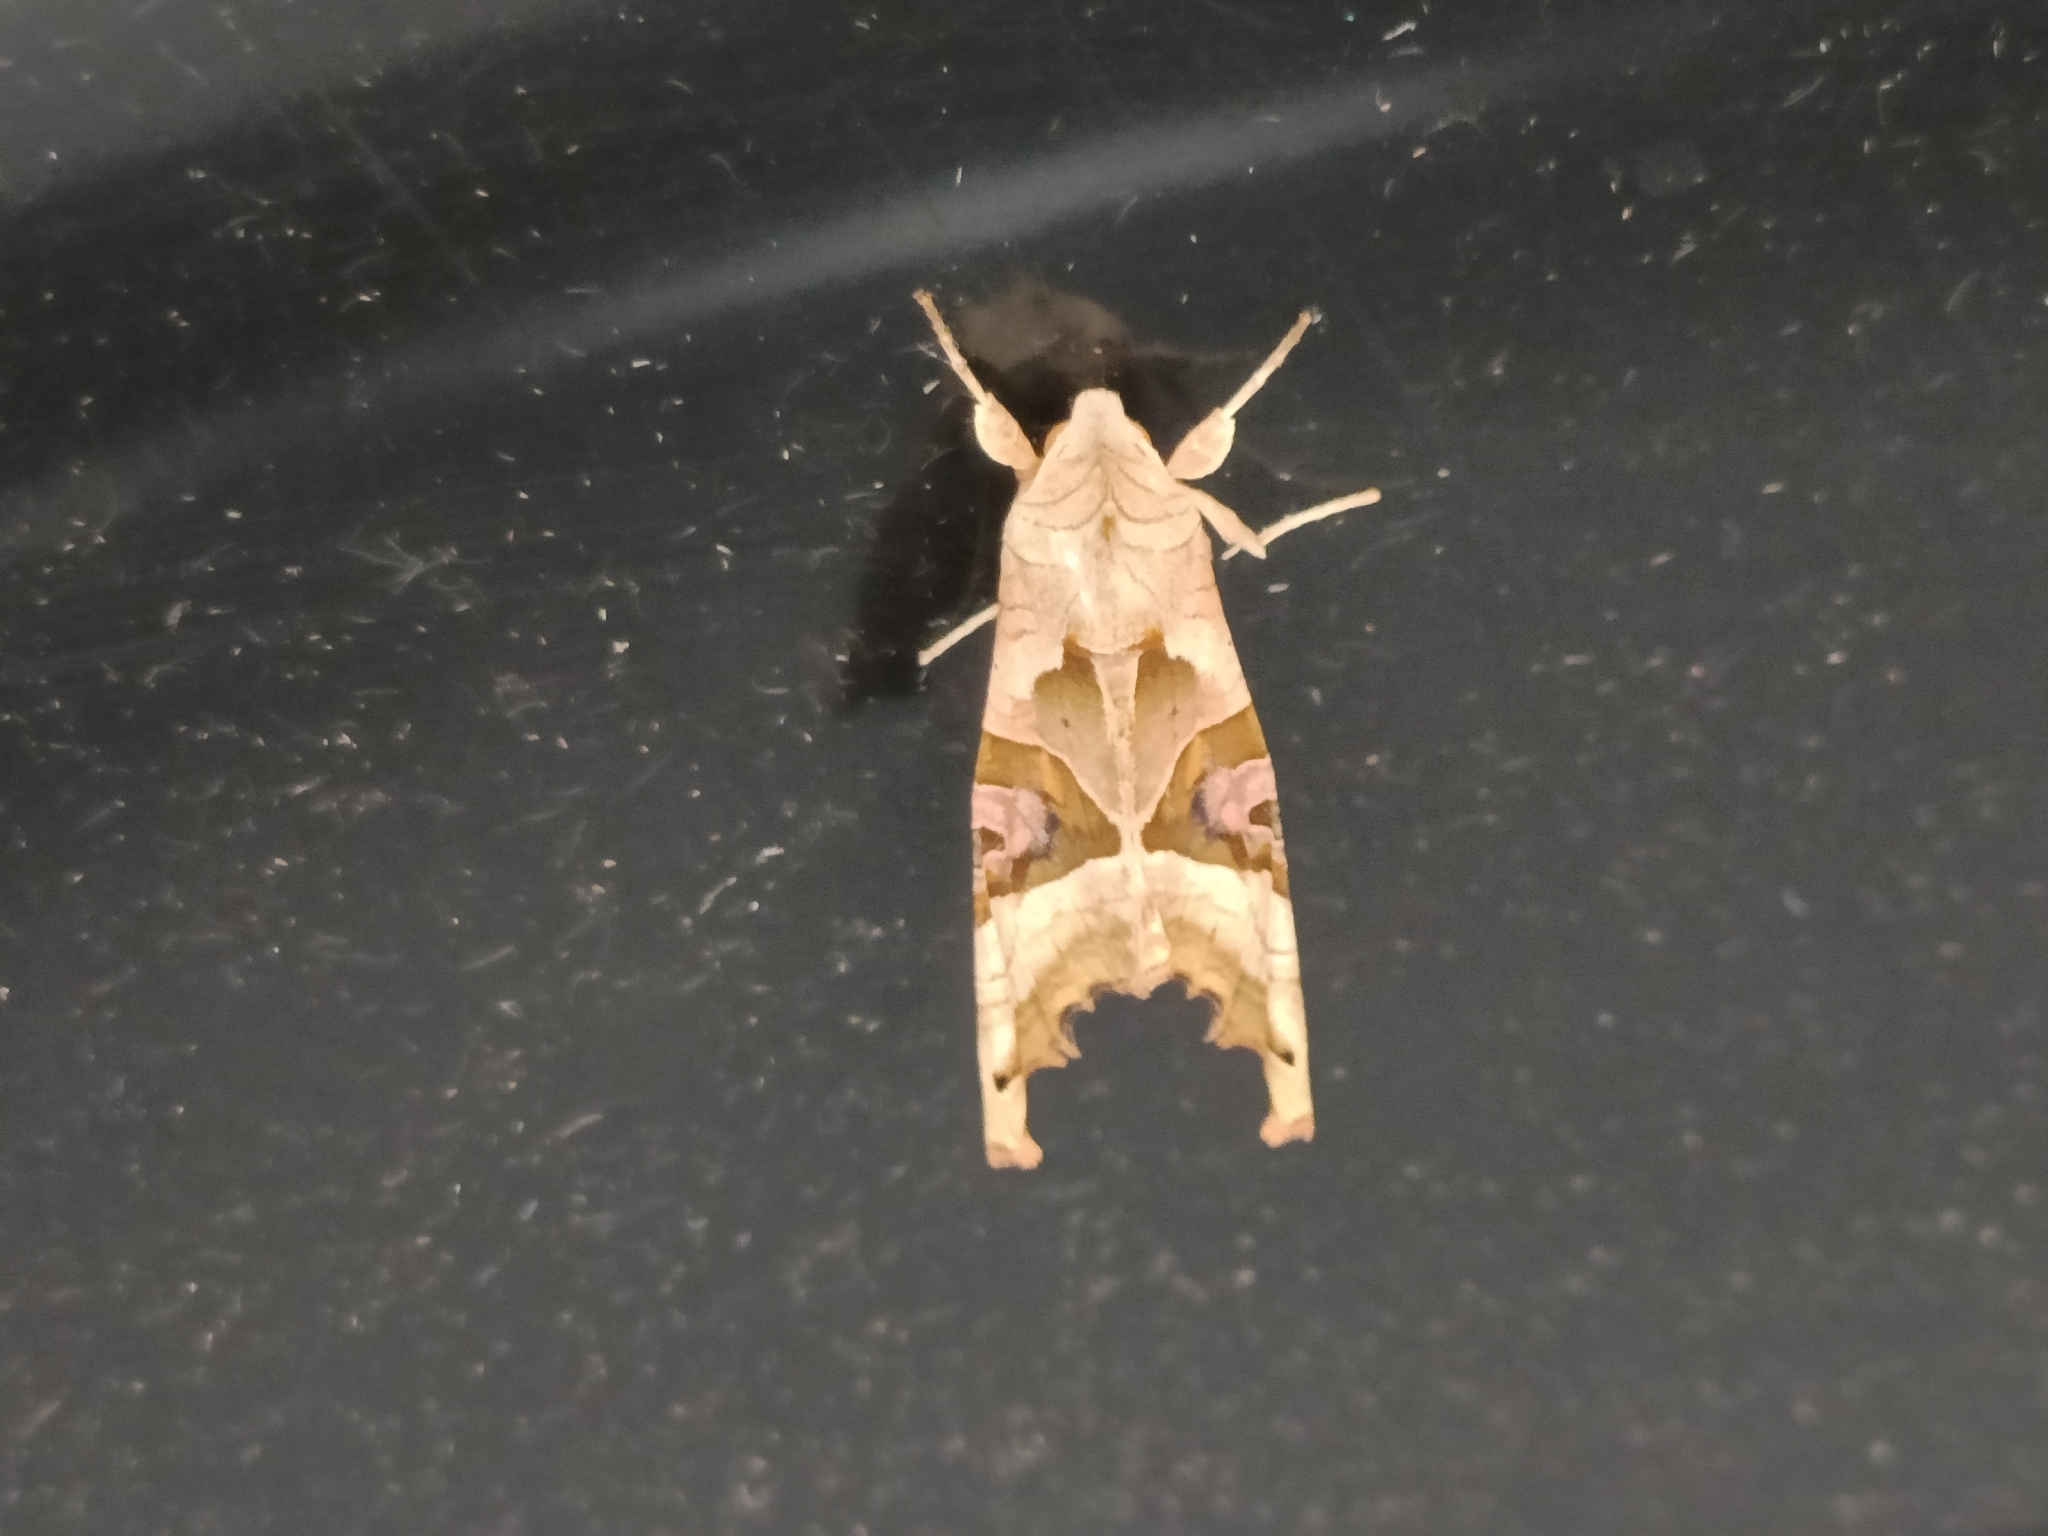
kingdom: Animalia
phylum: Arthropoda
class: Insecta
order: Lepidoptera
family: Noctuidae
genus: Phlogophora
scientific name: Phlogophora meticulosa
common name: Angle shades
